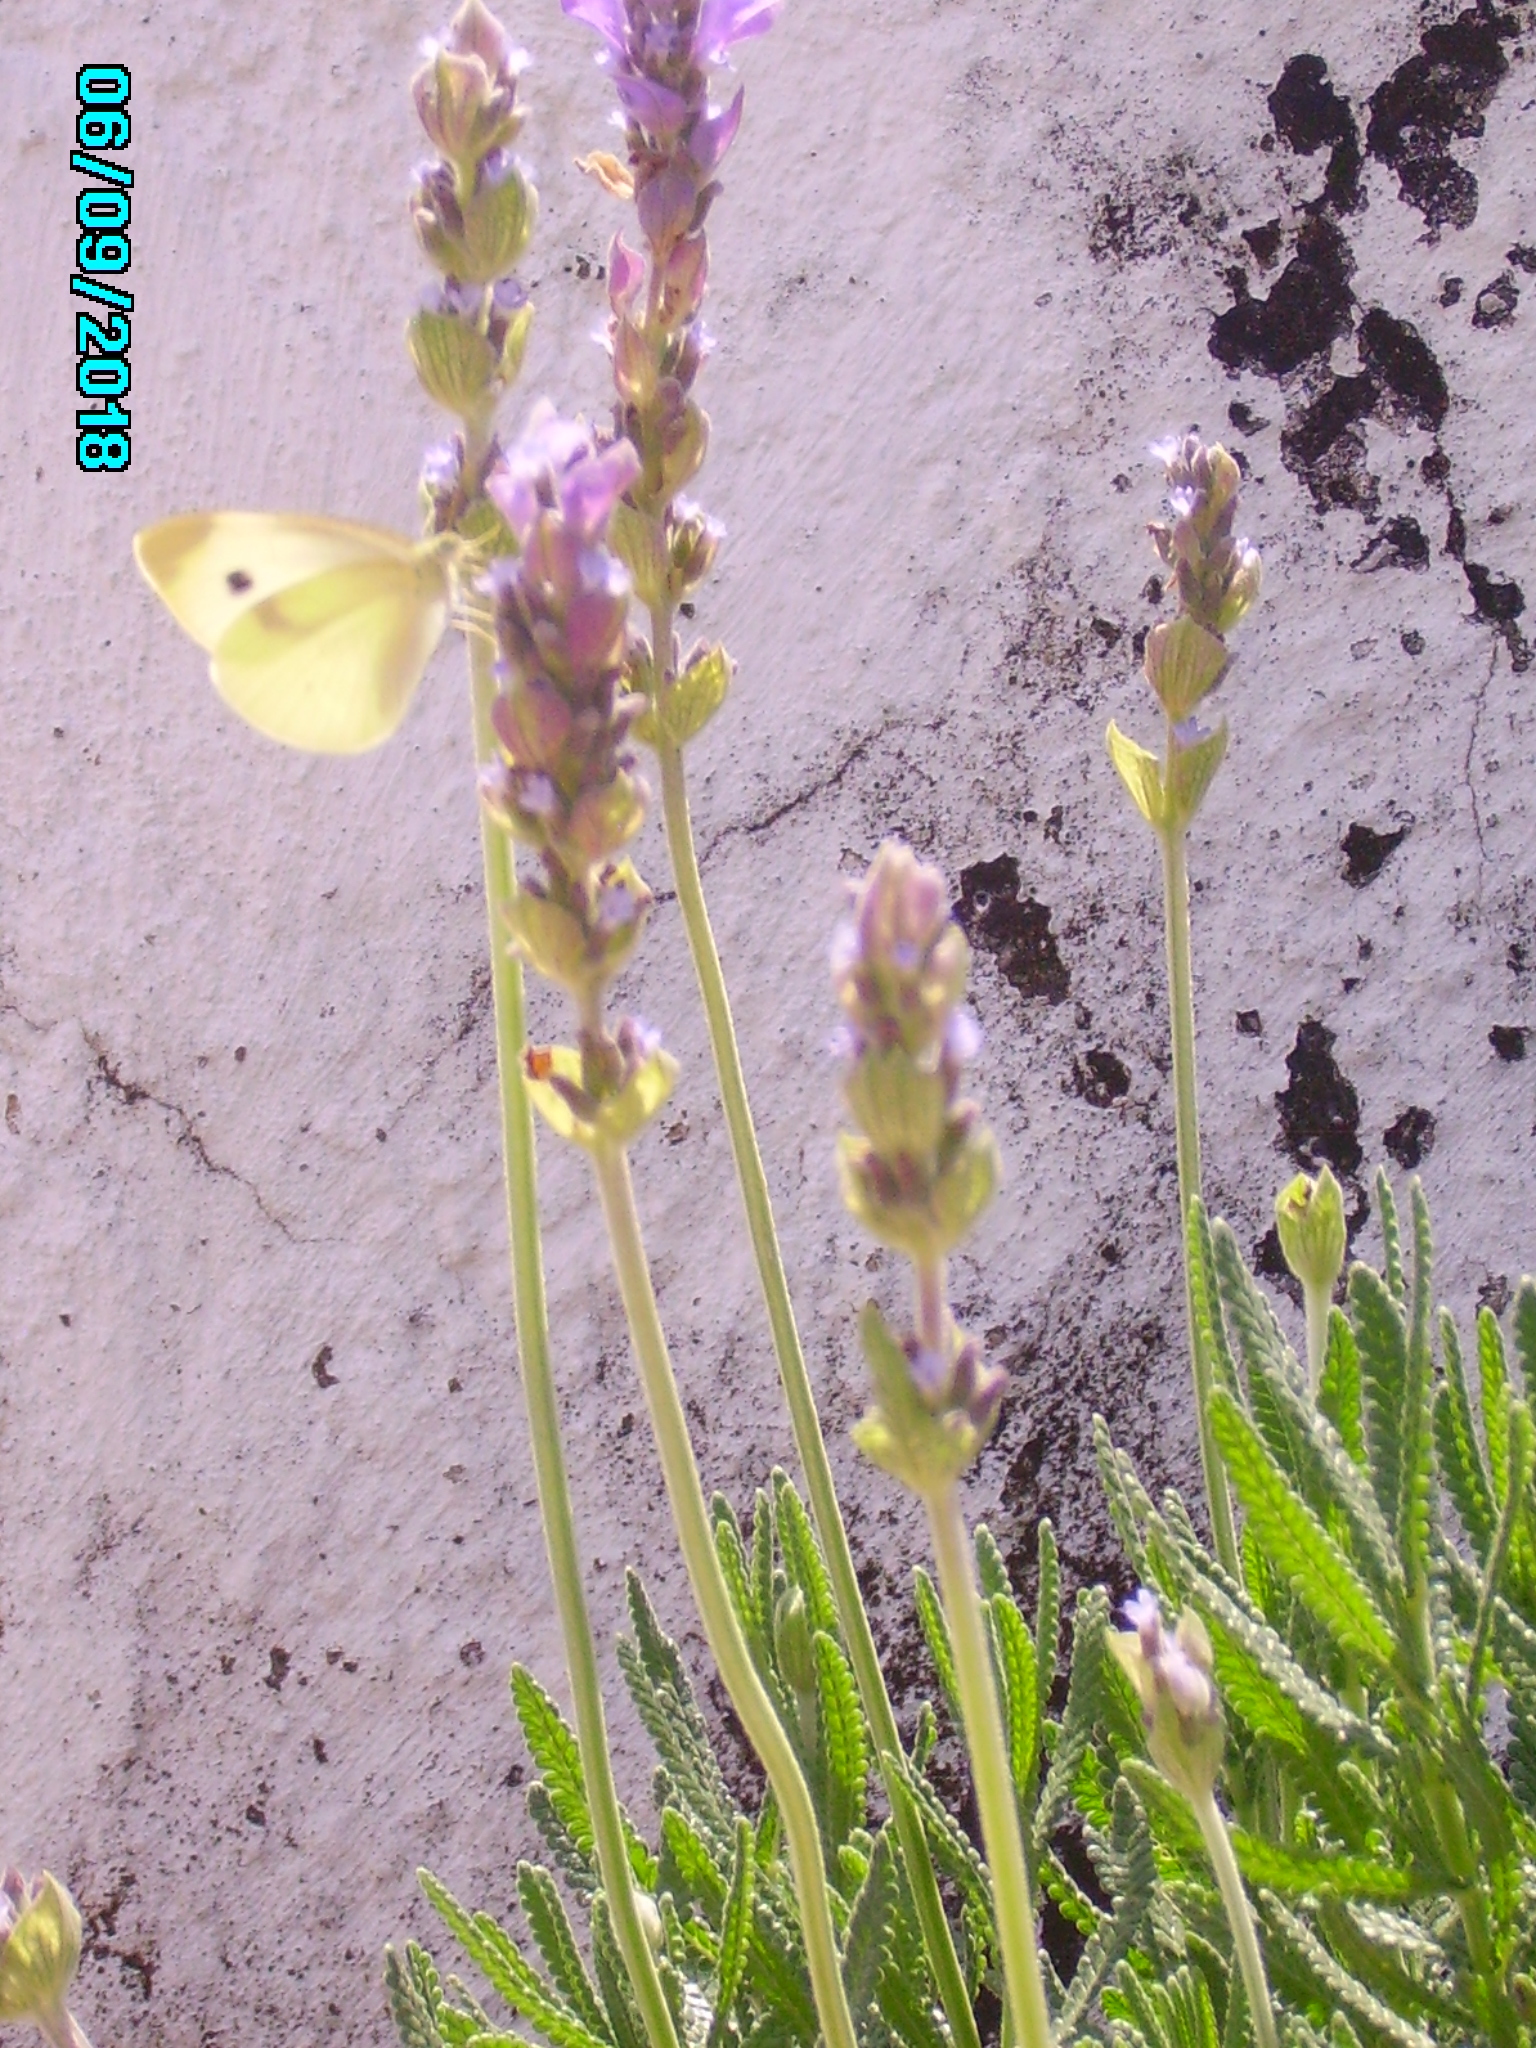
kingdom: Animalia
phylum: Arthropoda
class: Insecta
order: Lepidoptera
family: Pieridae
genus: Pieris
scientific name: Pieris rapae
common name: Small white
